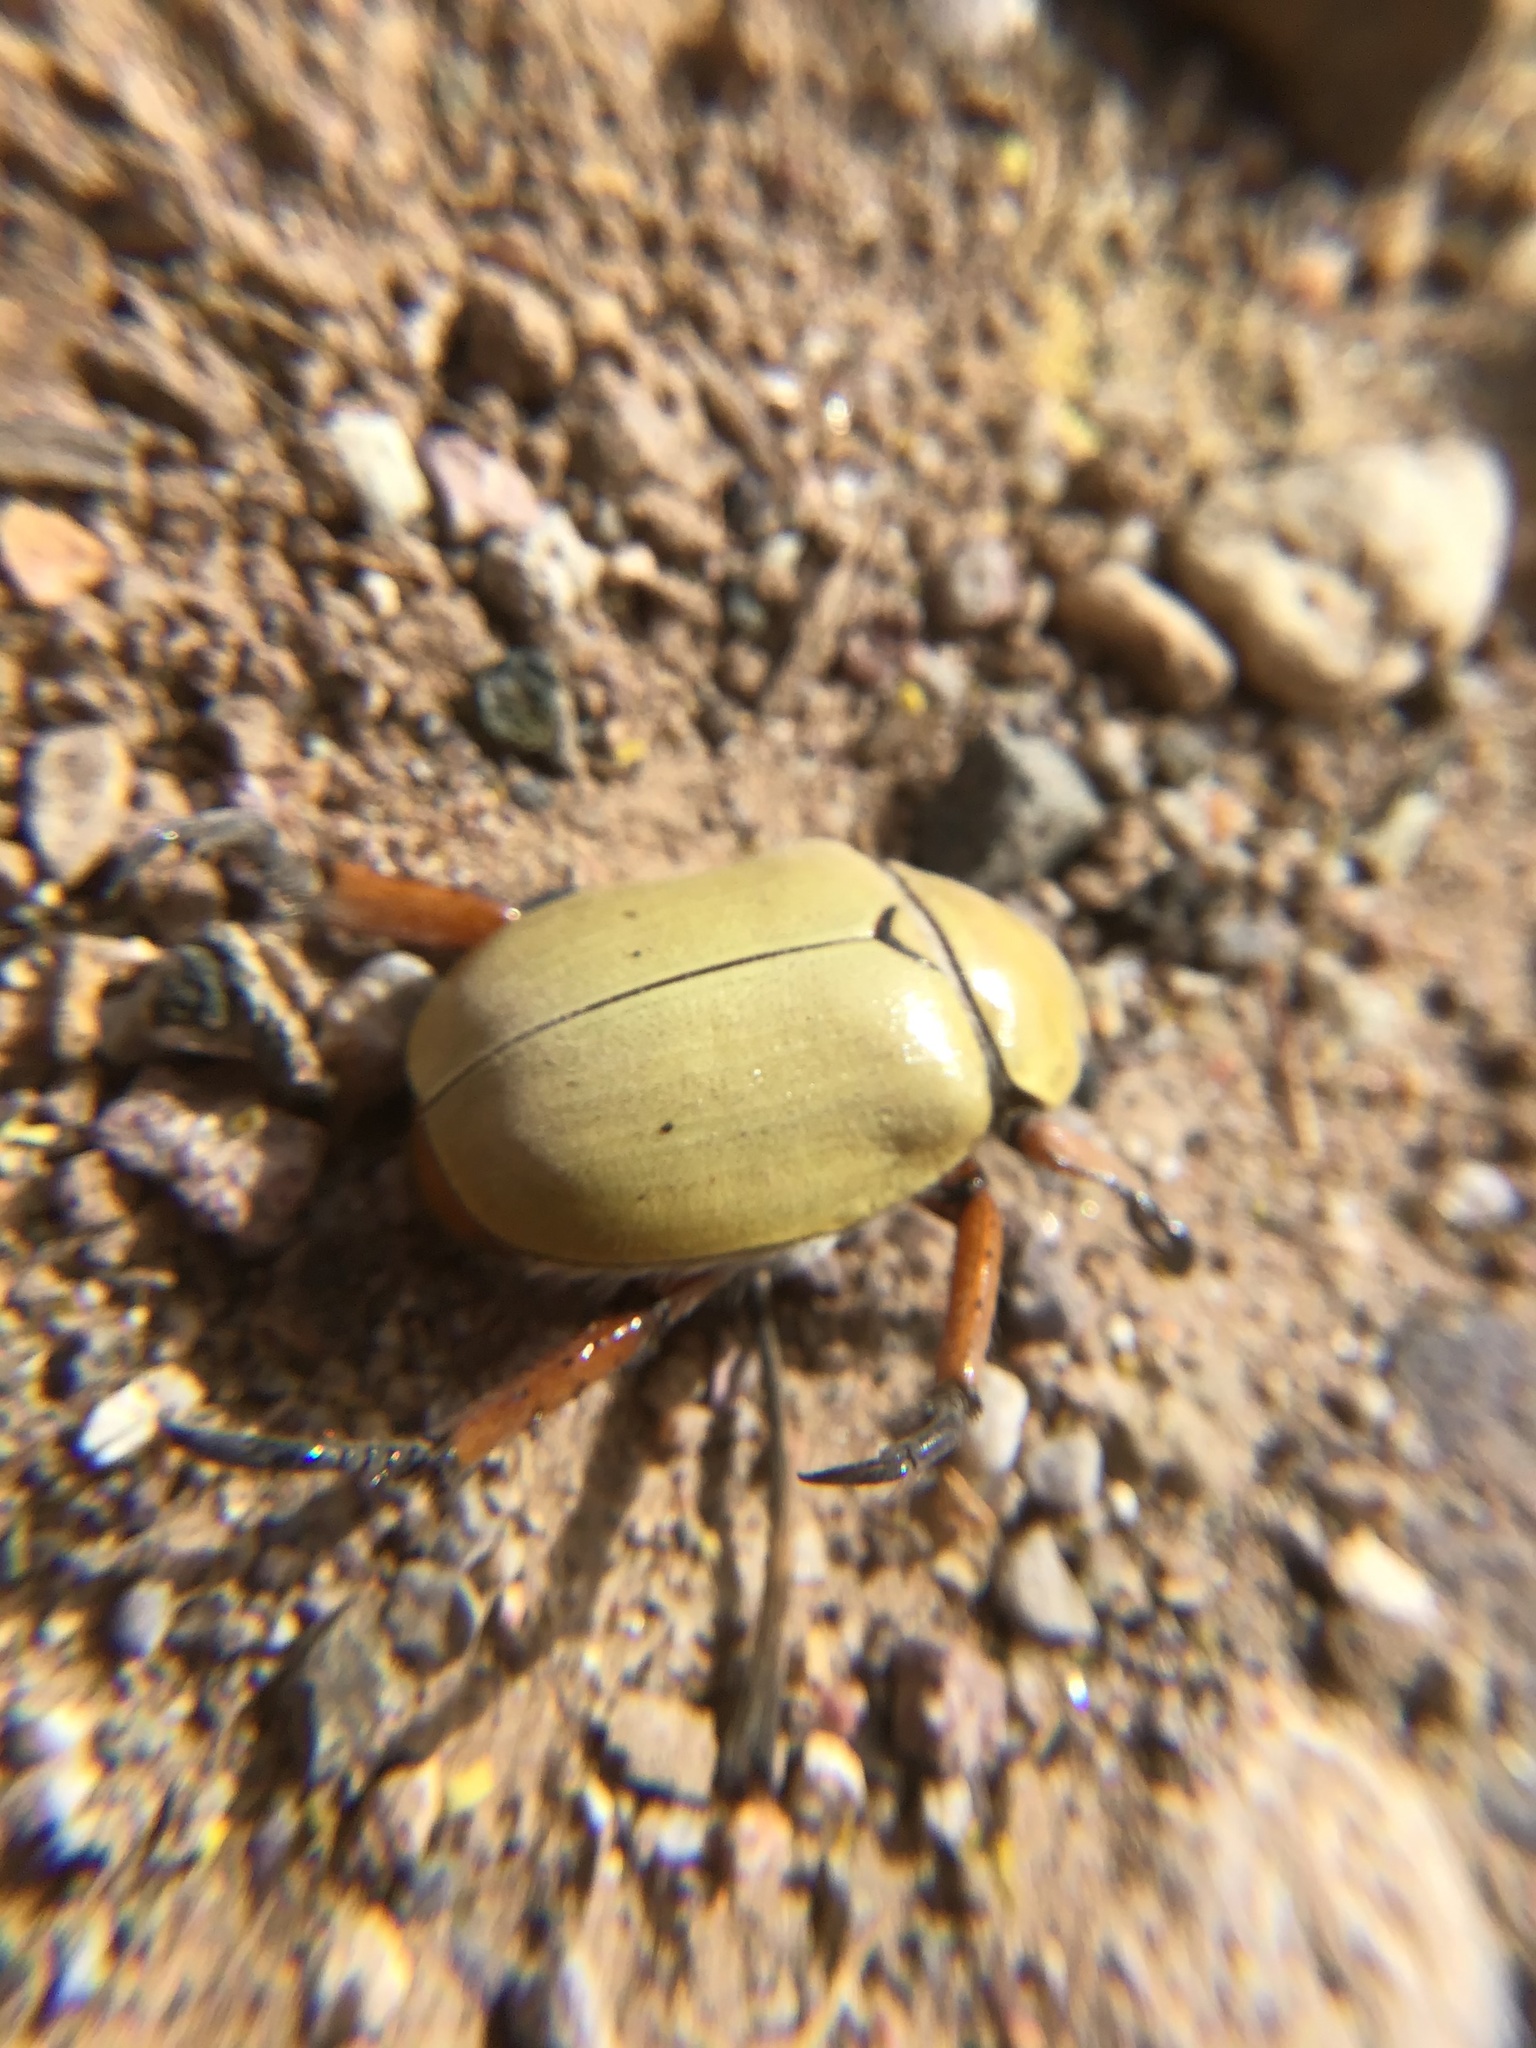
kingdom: Animalia
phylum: Arthropoda
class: Insecta
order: Coleoptera
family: Scarabaeidae
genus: Cotalpa
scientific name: Cotalpa flavida
